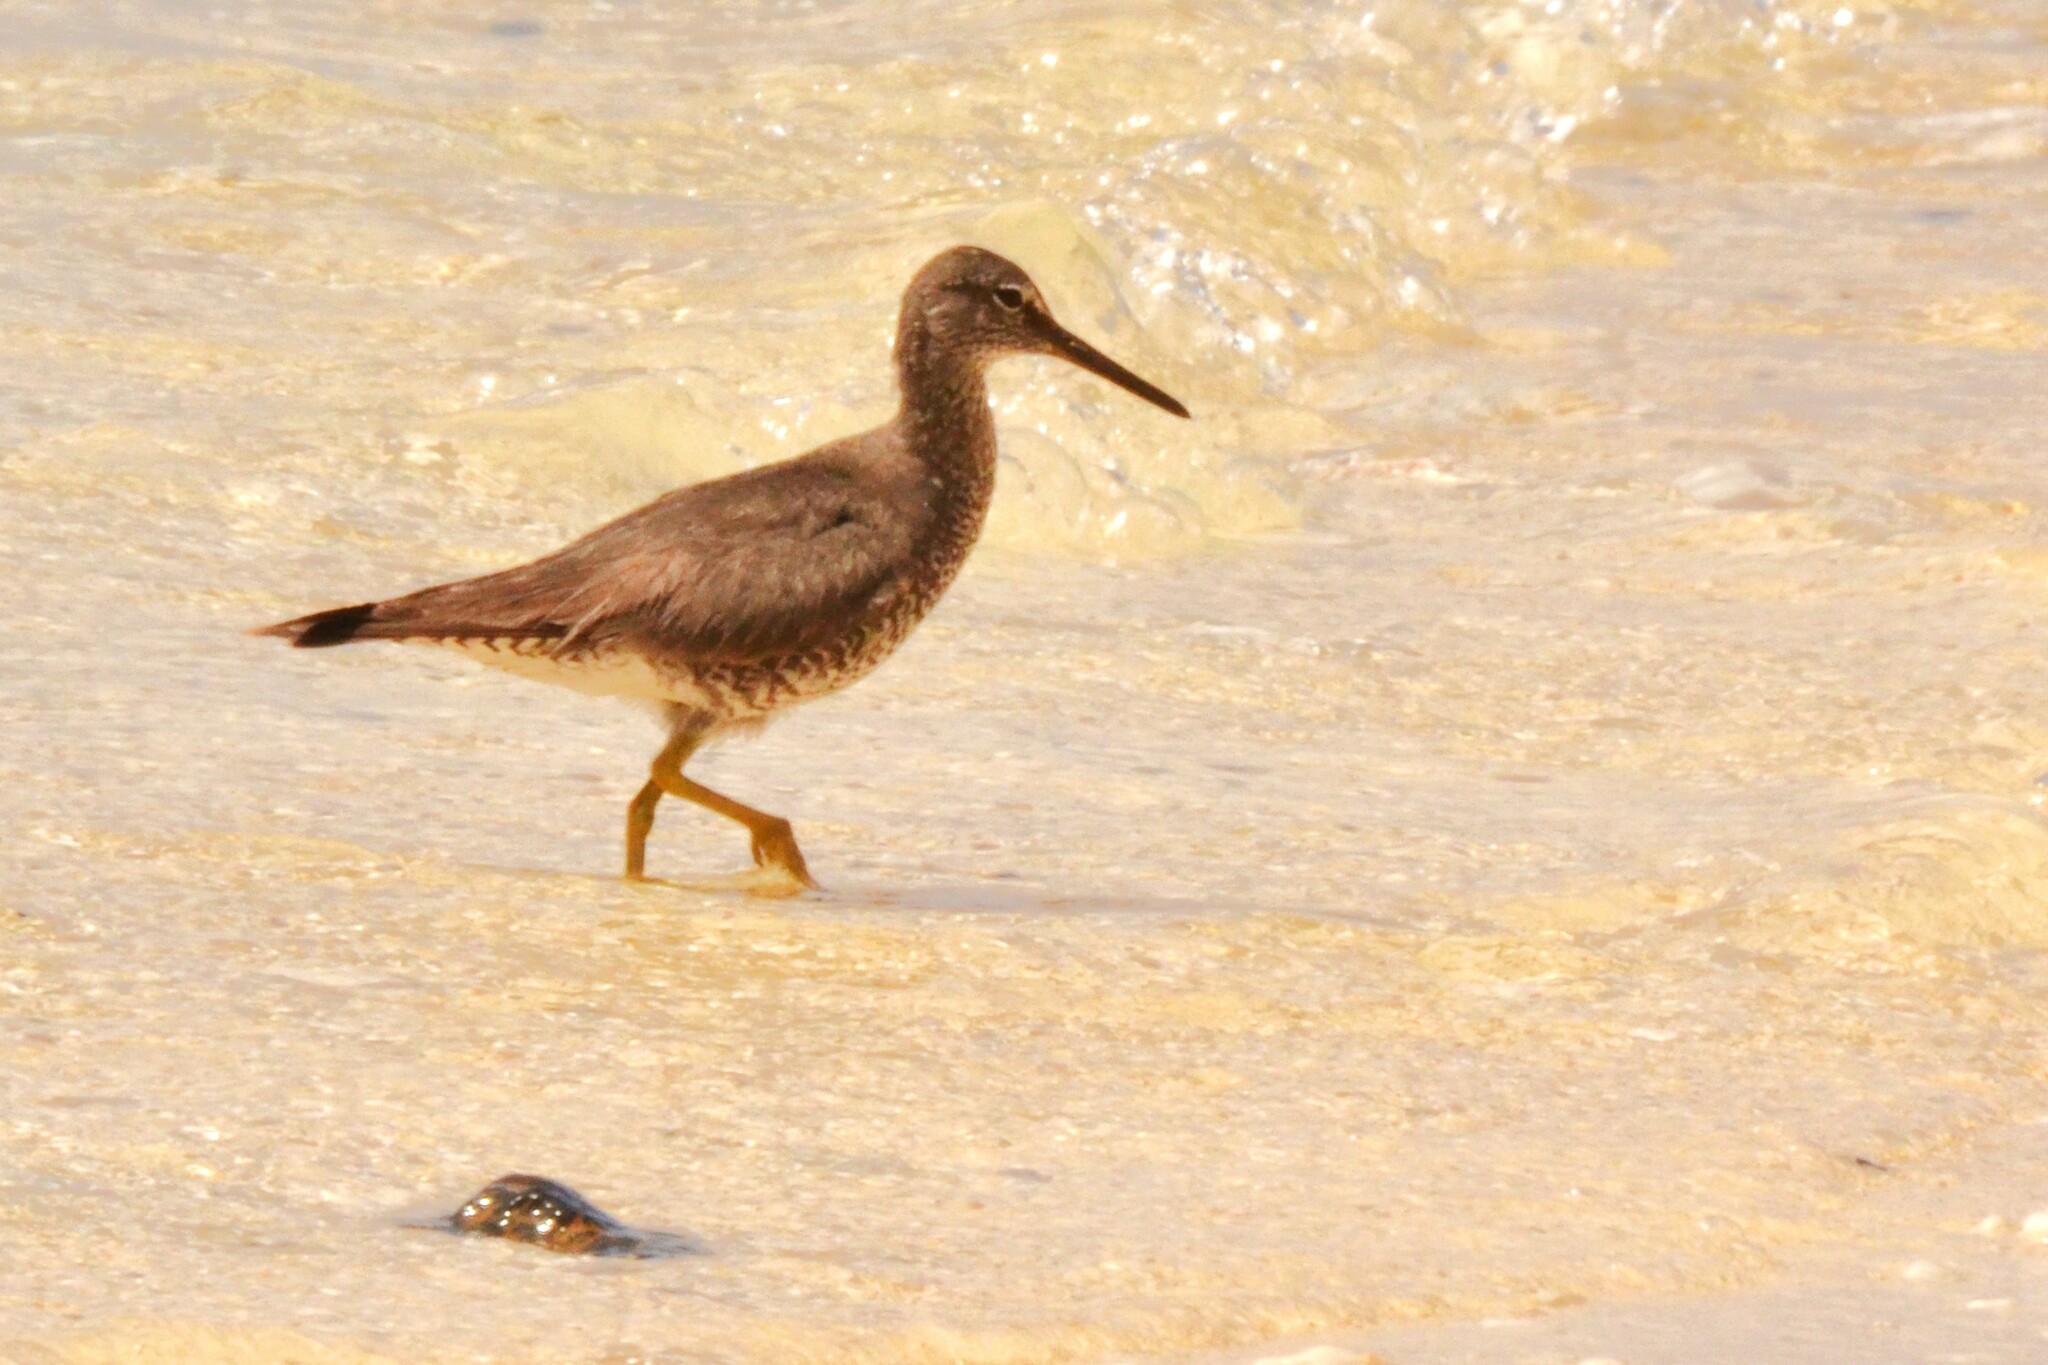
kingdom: Animalia
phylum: Chordata
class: Aves
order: Charadriiformes
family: Scolopacidae
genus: Tringa
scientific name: Tringa incana
